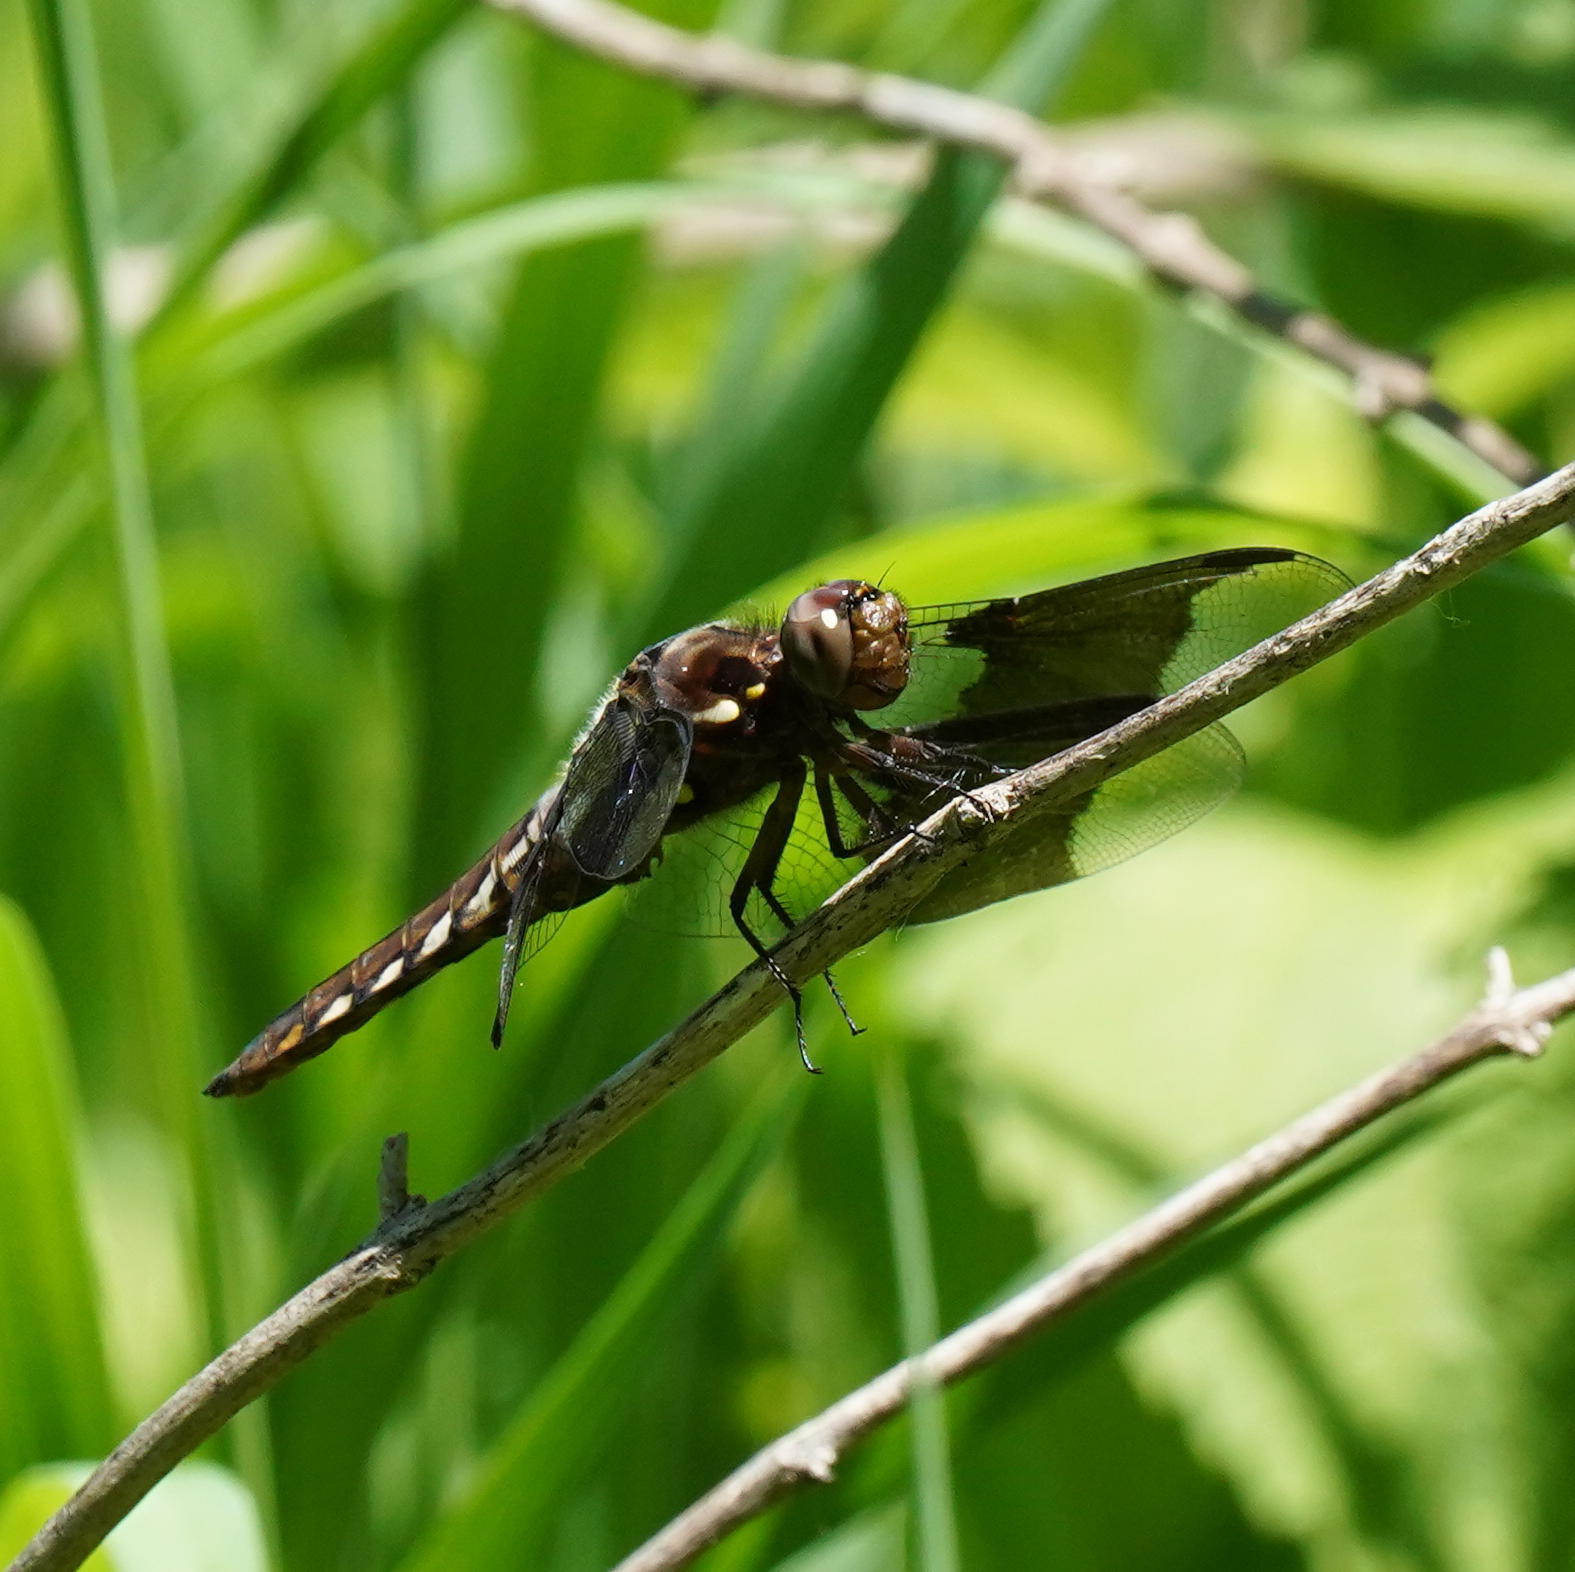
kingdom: Animalia
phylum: Arthropoda
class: Insecta
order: Odonata
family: Libellulidae
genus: Plathemis
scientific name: Plathemis lydia
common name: Common whitetail
